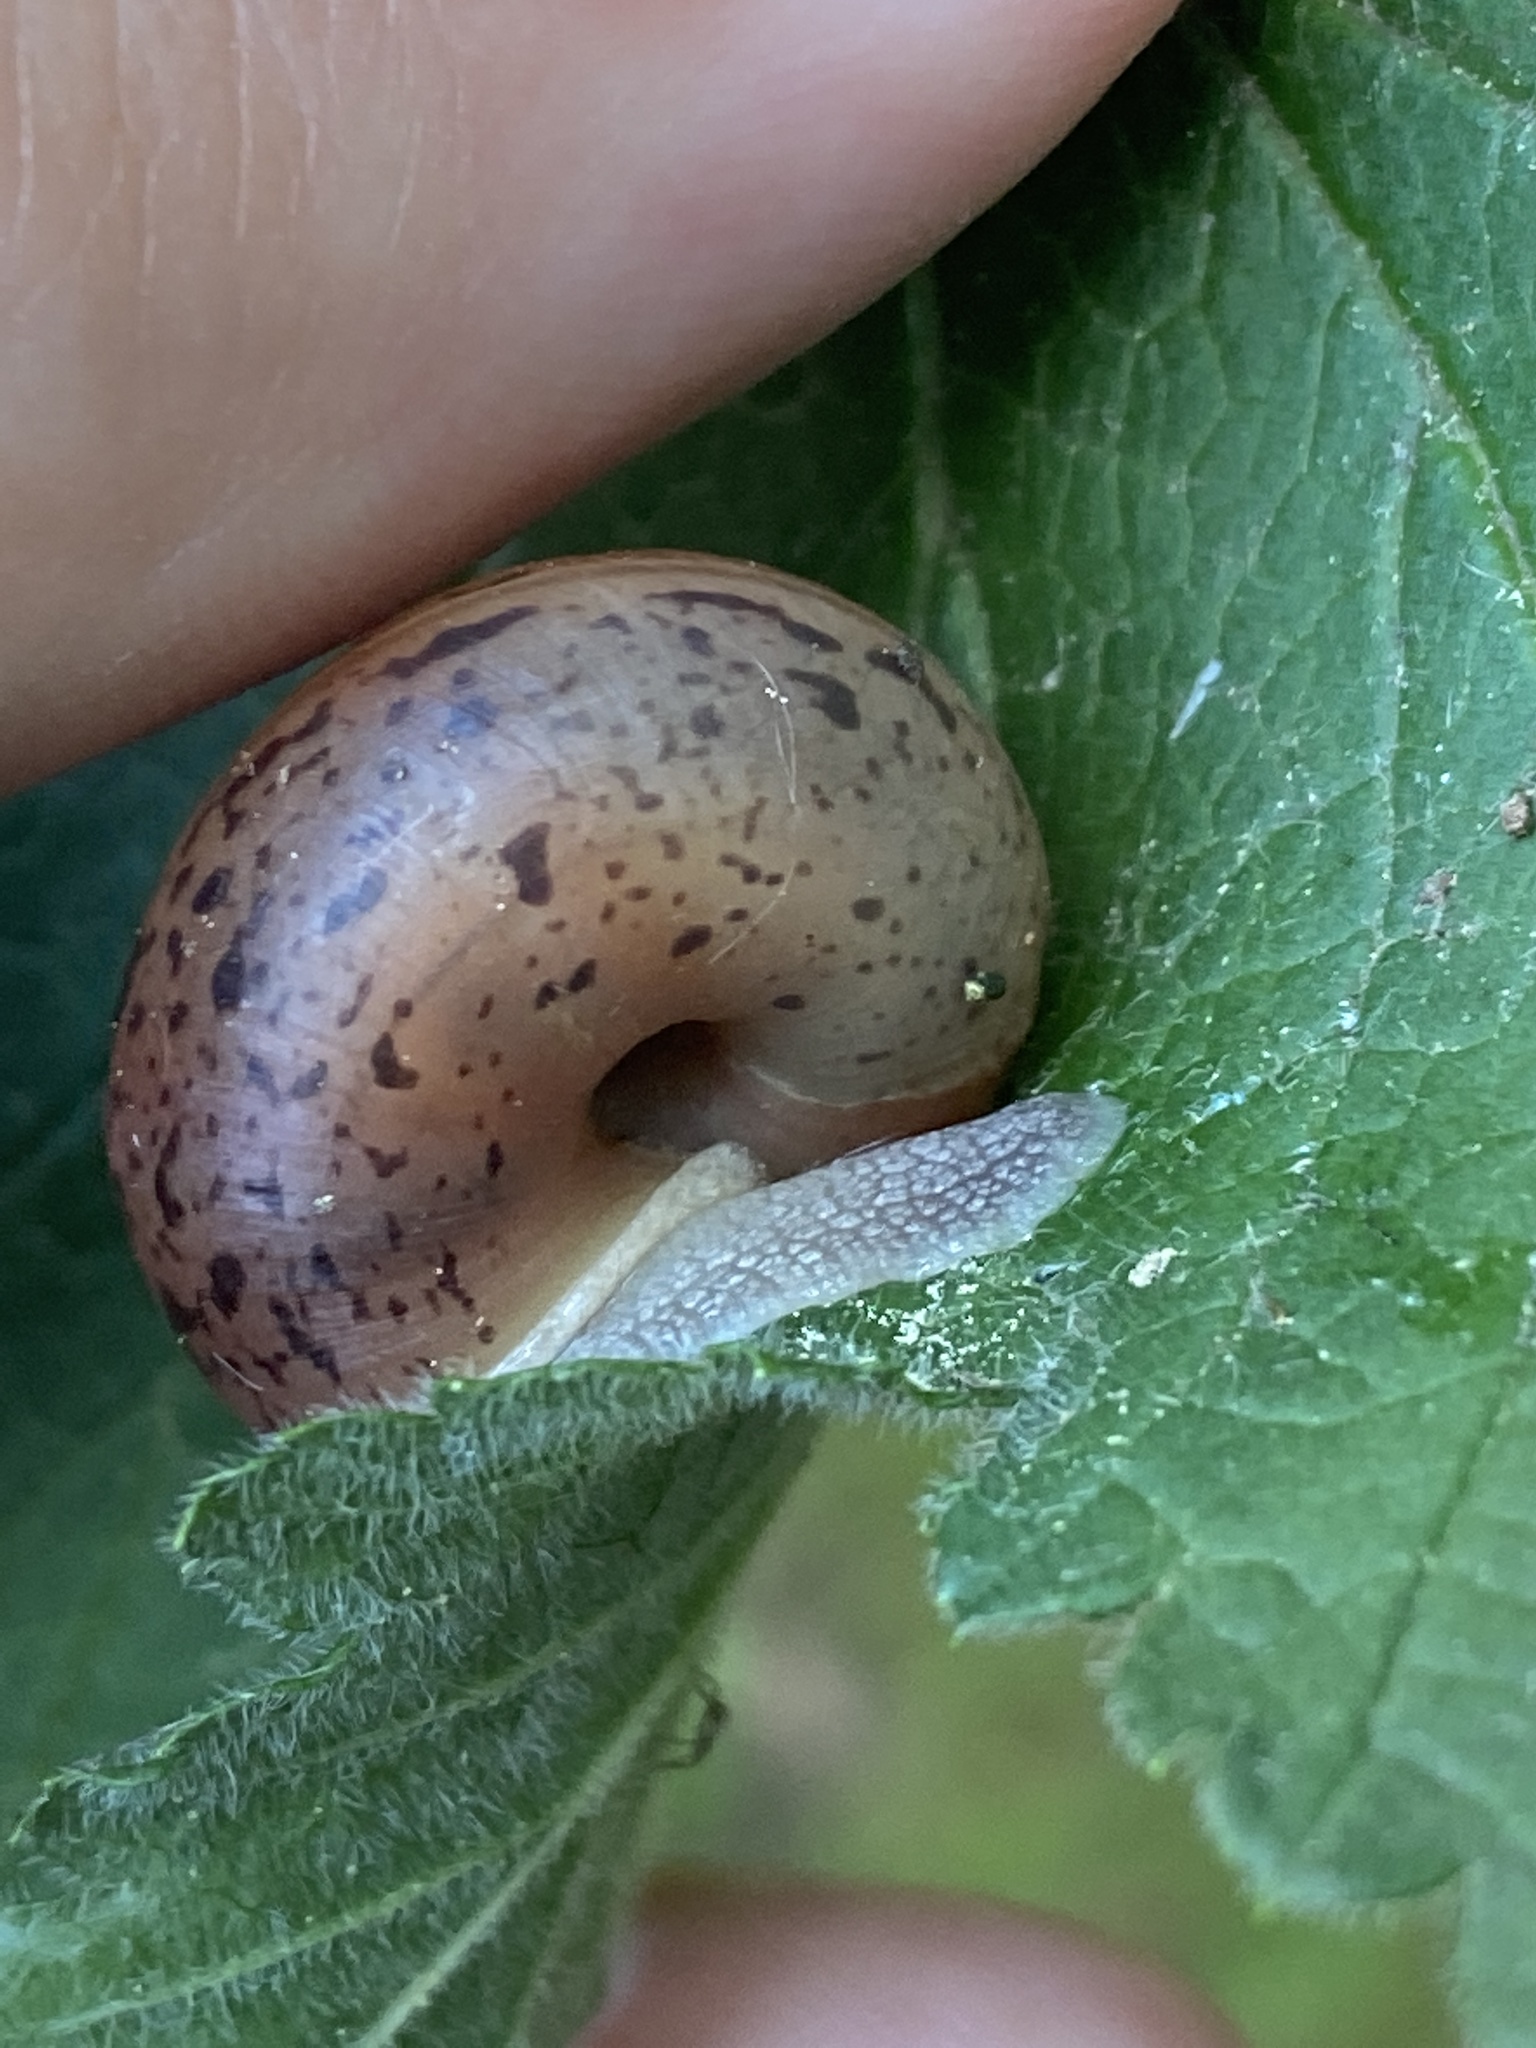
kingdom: Animalia
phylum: Mollusca
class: Gastropoda
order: Stylommatophora
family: Camaenidae
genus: Fruticicola
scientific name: Fruticicola fruticum
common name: Bush snail
